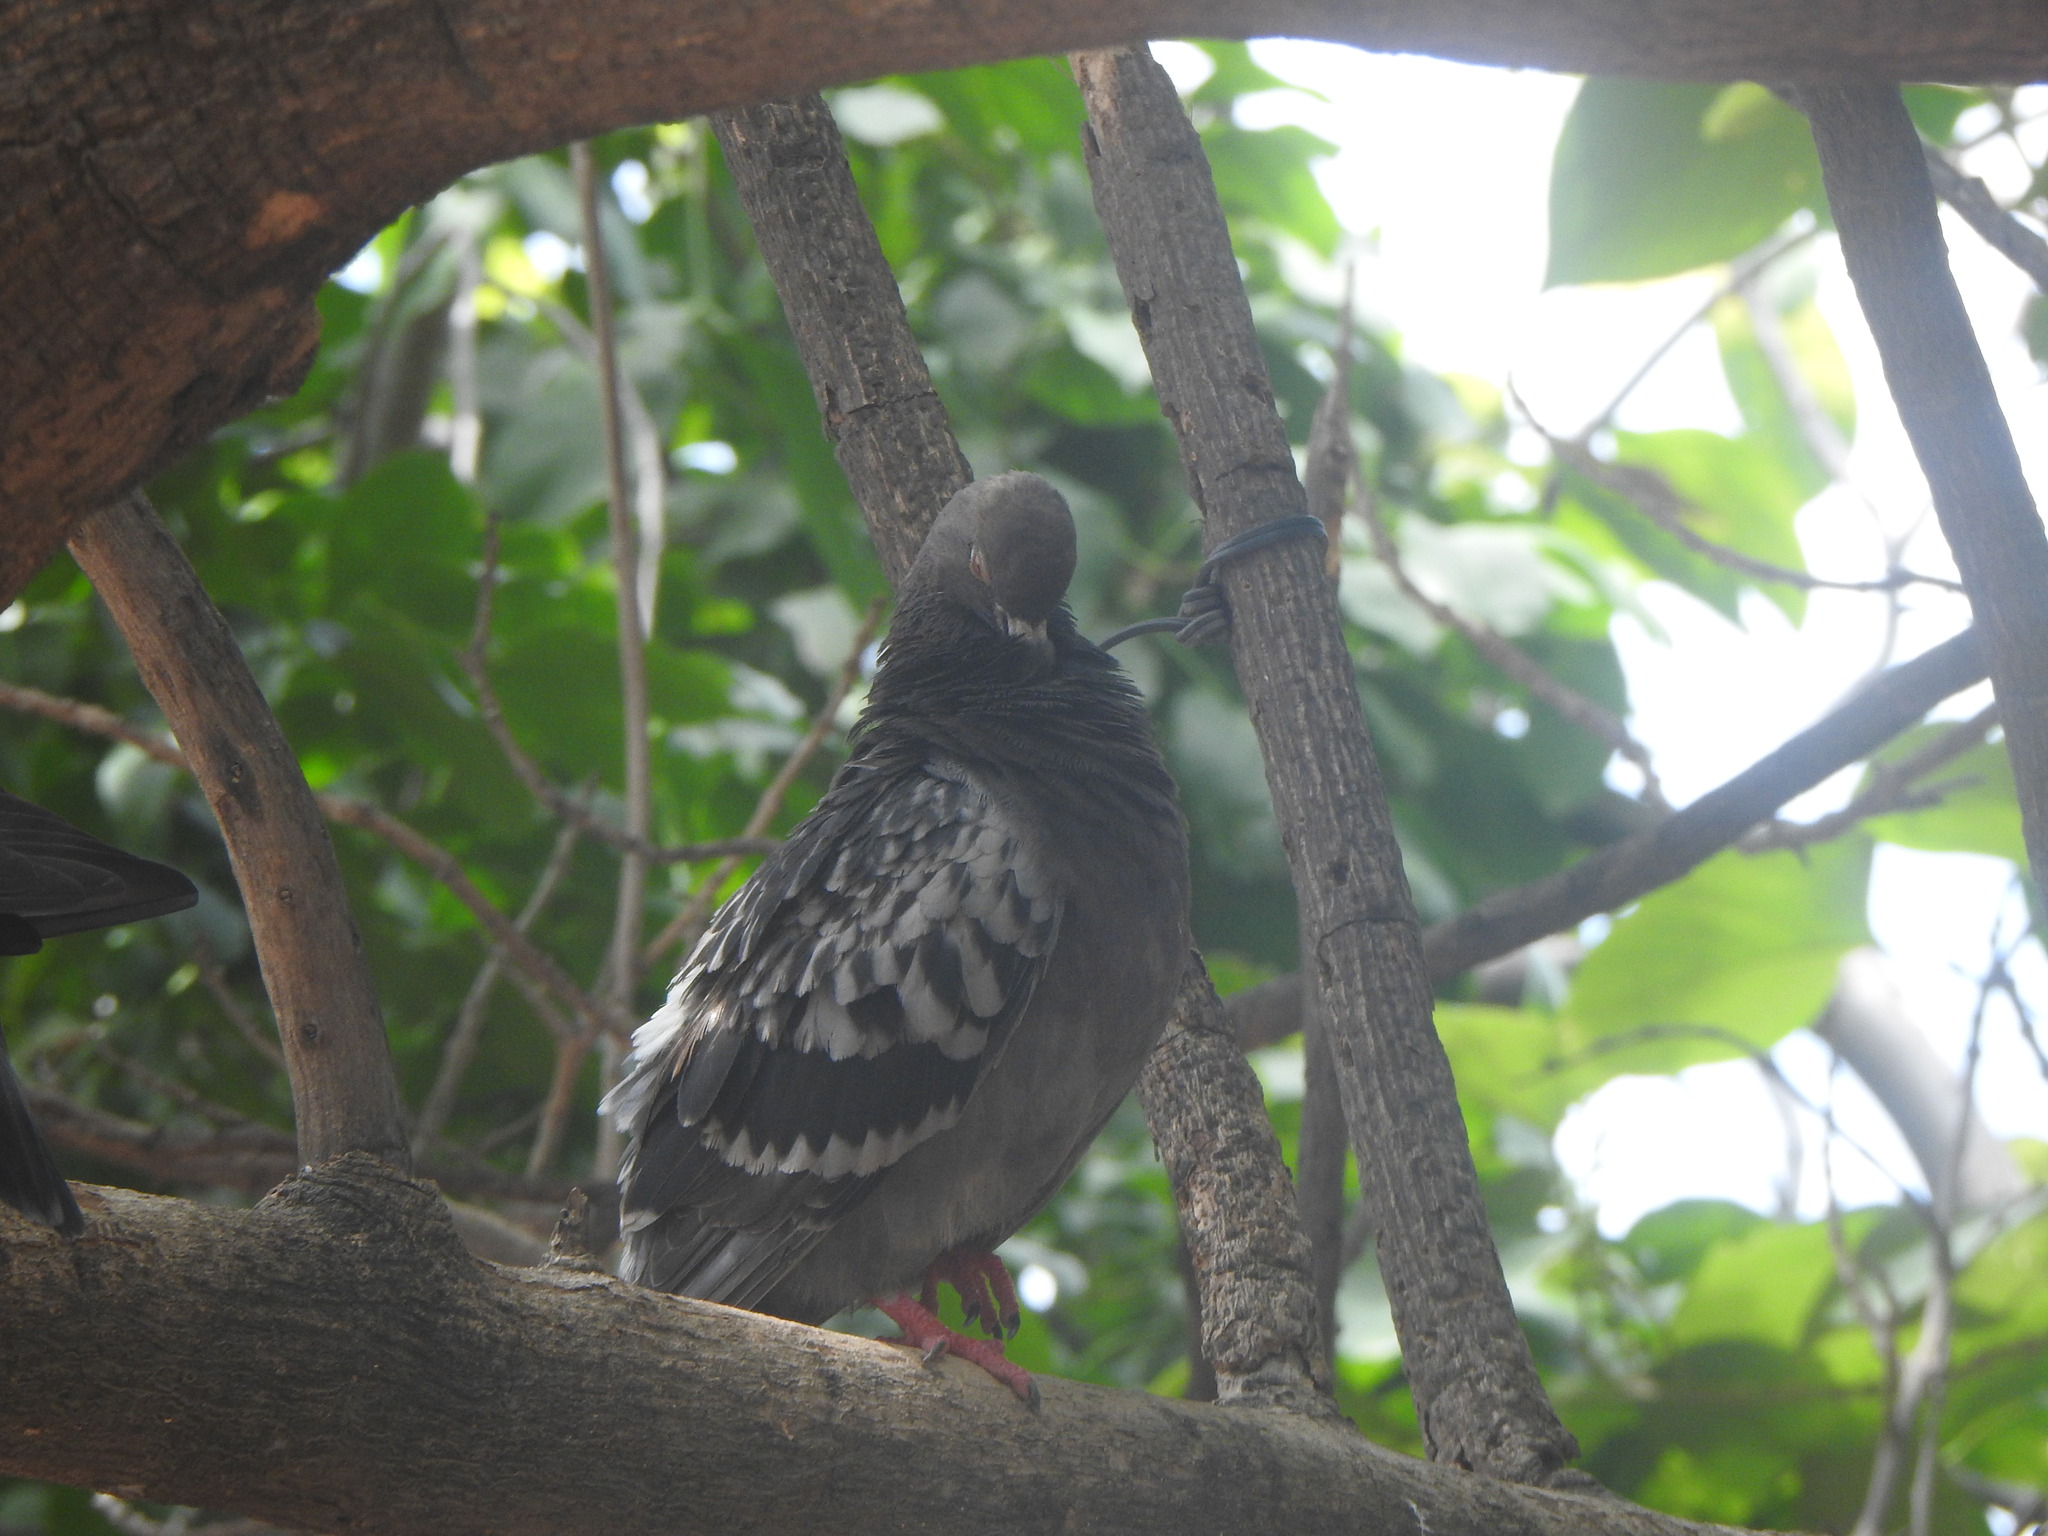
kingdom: Animalia
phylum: Chordata
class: Aves
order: Columbiformes
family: Columbidae
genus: Columba
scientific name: Columba livia
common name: Rock pigeon
